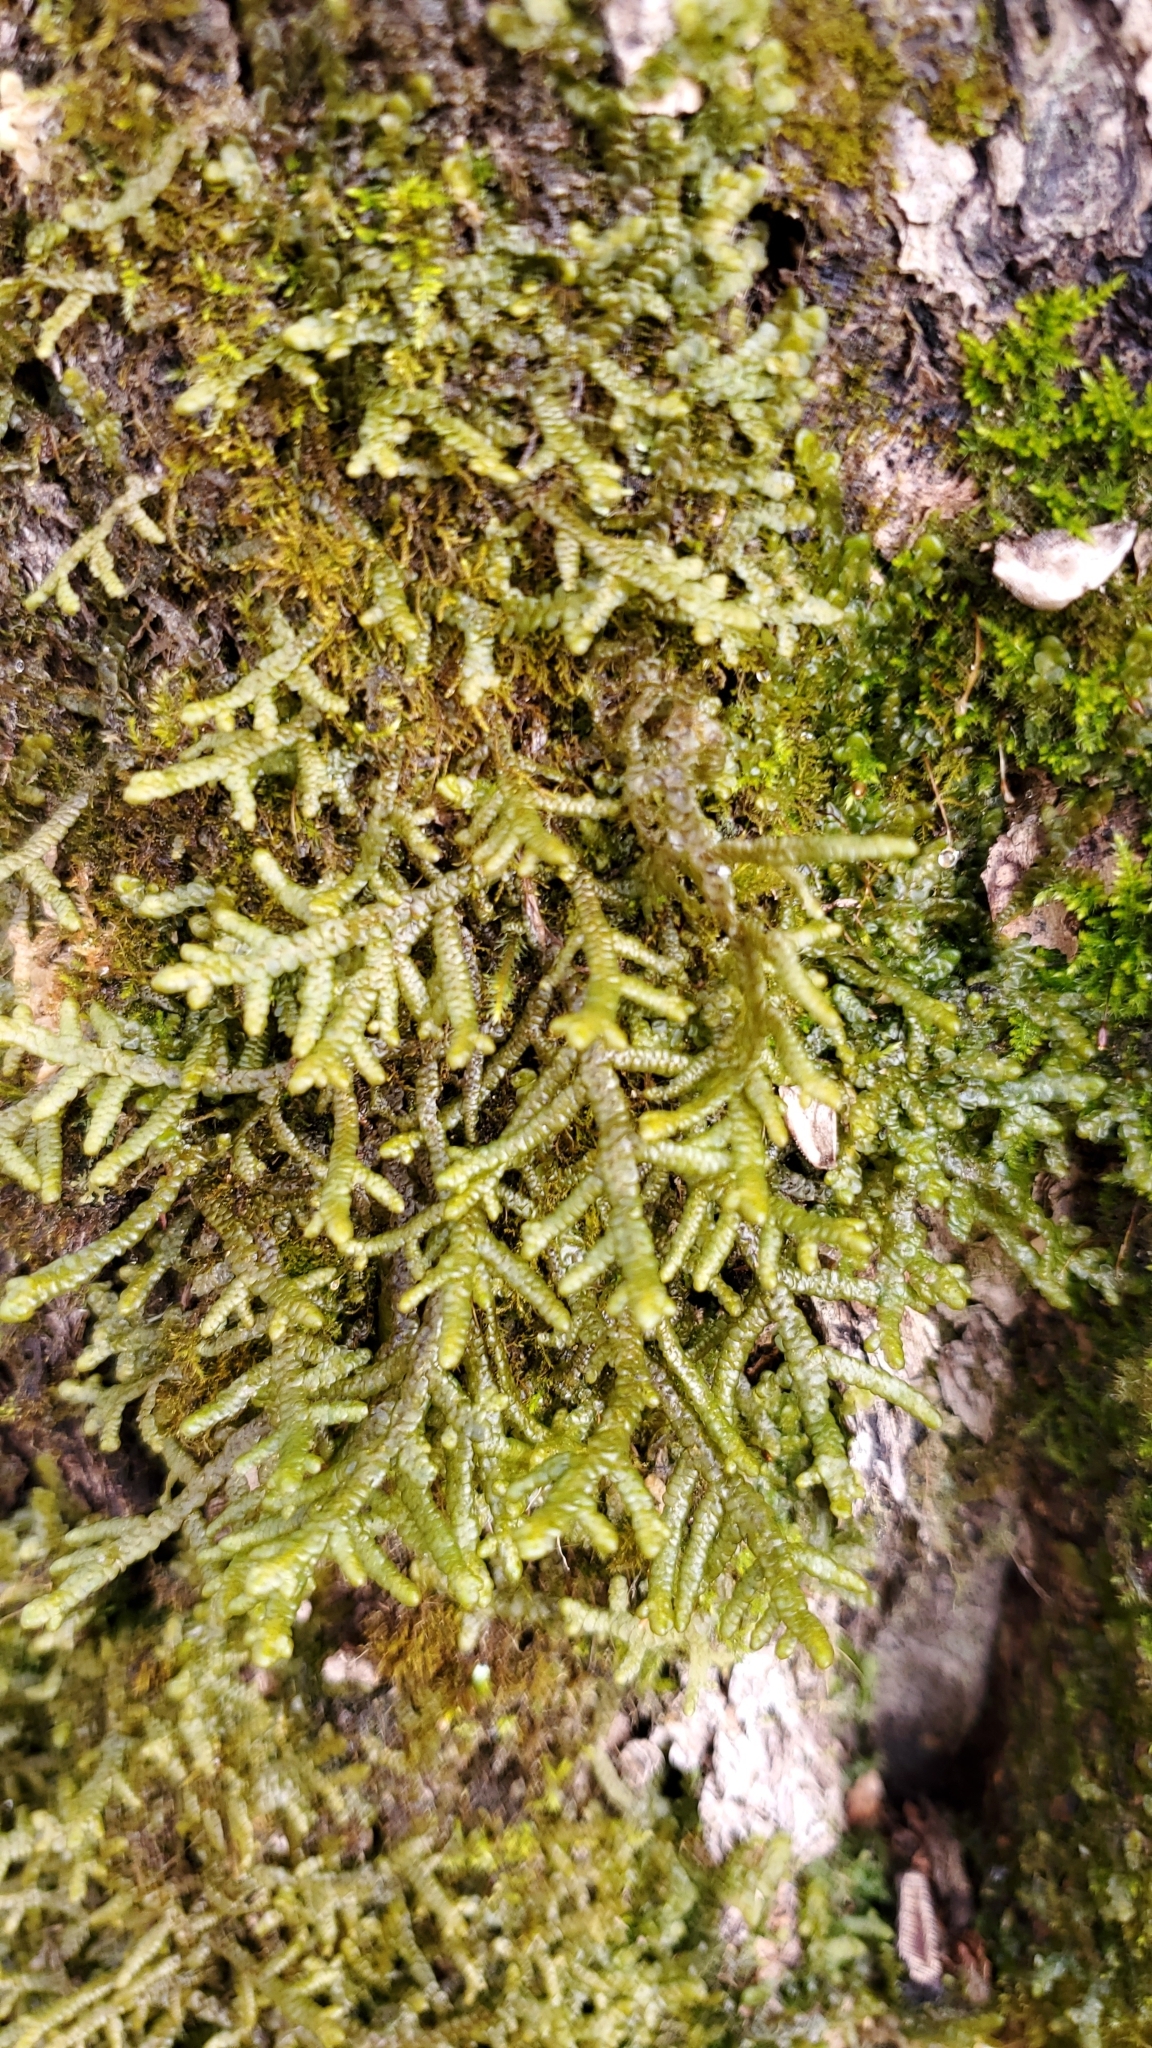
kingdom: Plantae
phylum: Marchantiophyta
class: Jungermanniopsida
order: Porellales
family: Porellaceae
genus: Porella
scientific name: Porella platyphylla
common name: Wall scalewort
